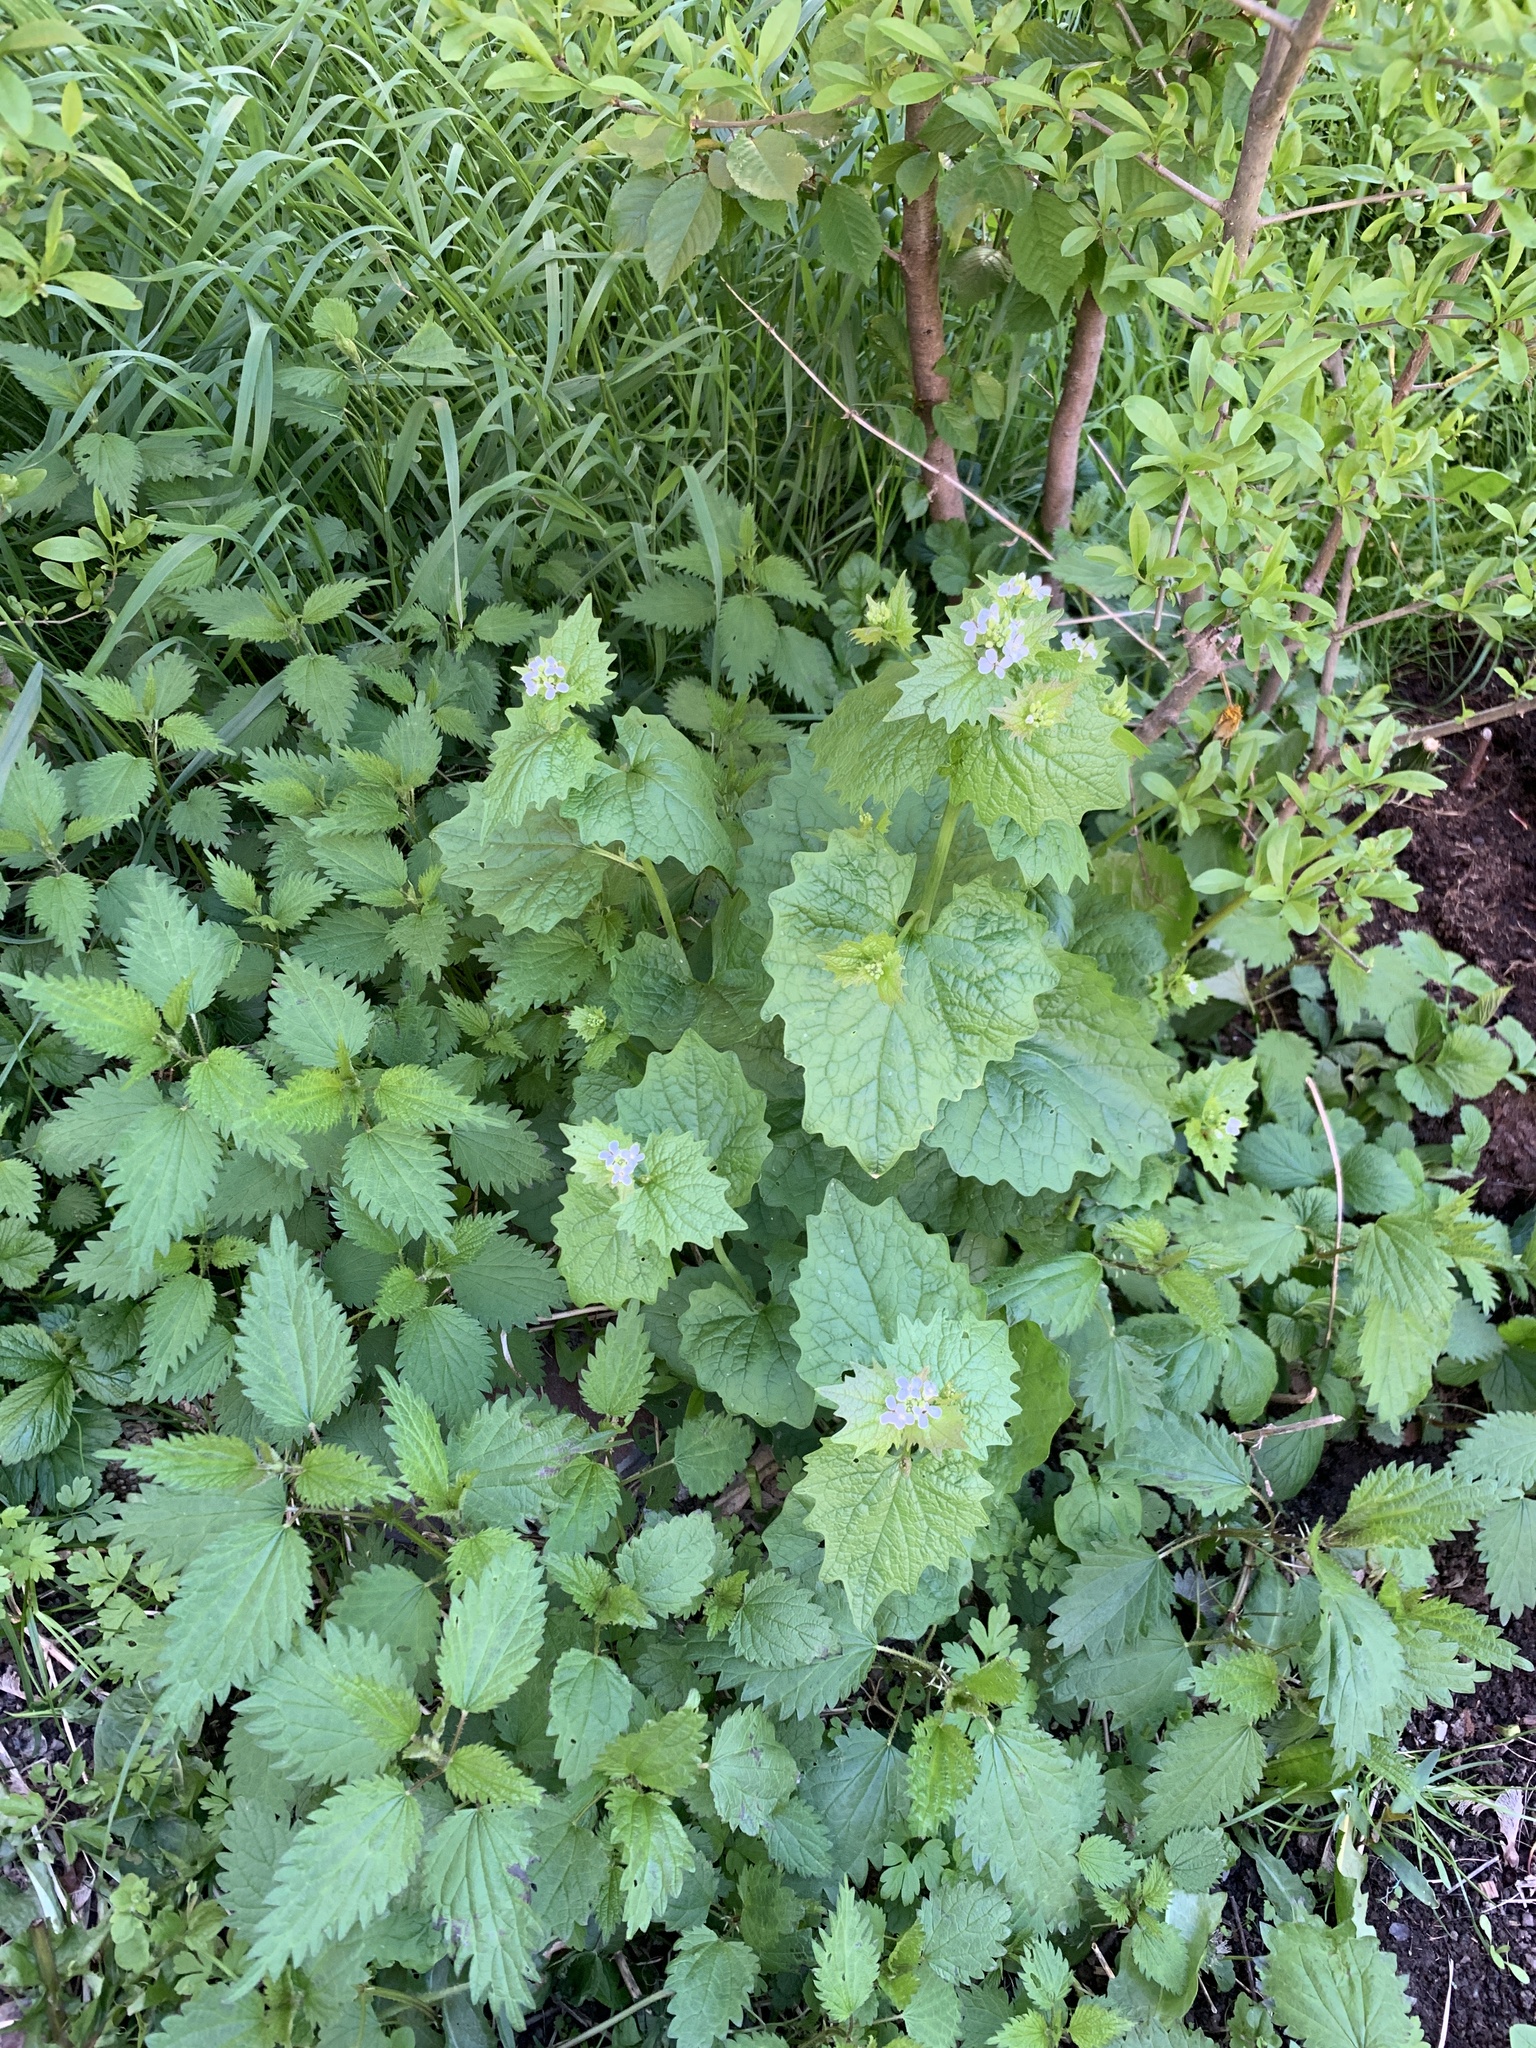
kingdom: Plantae
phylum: Tracheophyta
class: Magnoliopsida
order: Brassicales
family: Brassicaceae
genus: Alliaria
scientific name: Alliaria petiolata
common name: Garlic mustard
